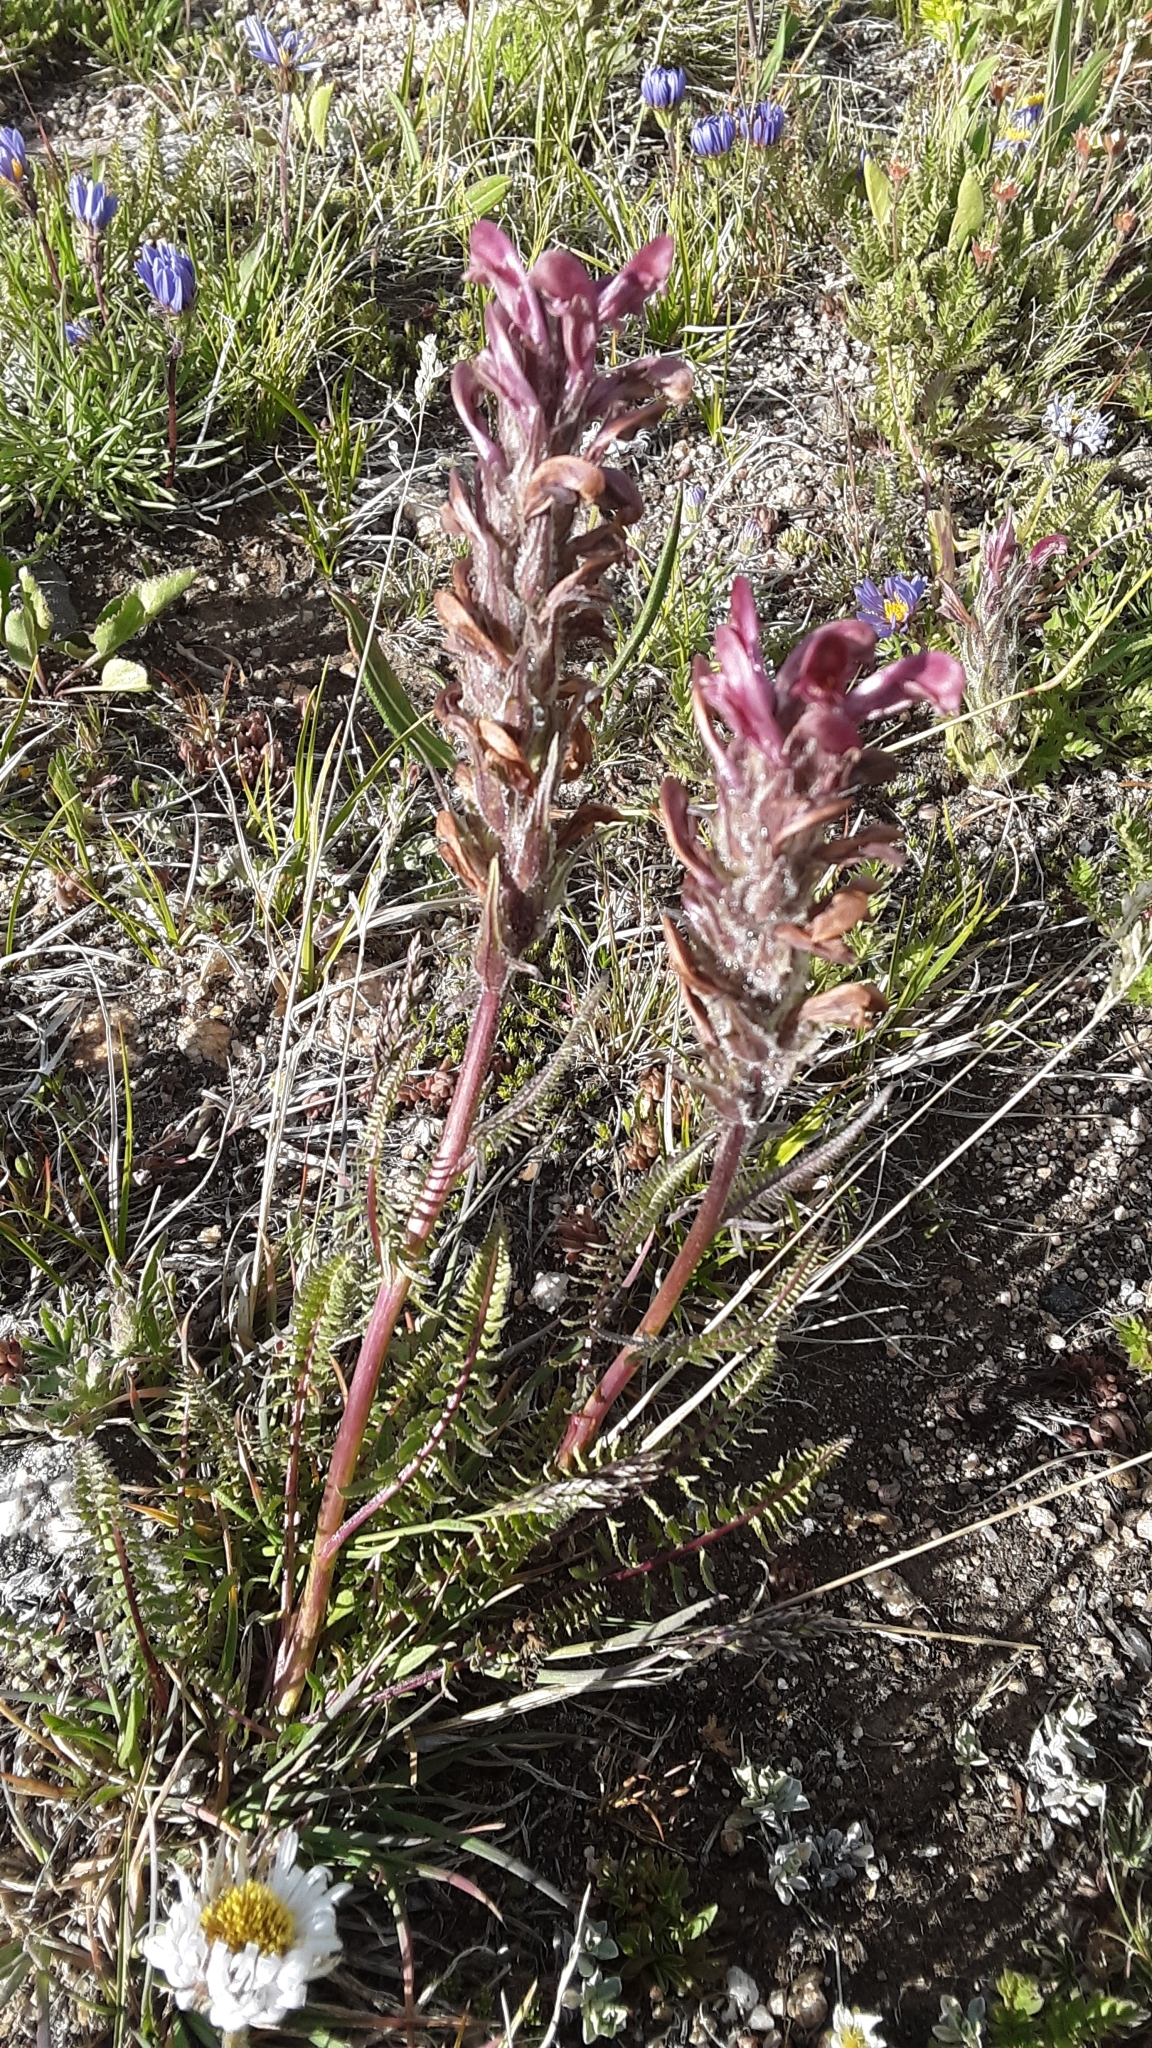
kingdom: Plantae
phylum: Tracheophyta
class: Magnoliopsida
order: Lamiales
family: Orobanchaceae
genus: Pedicularis
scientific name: Pedicularis cystopteridifolia
